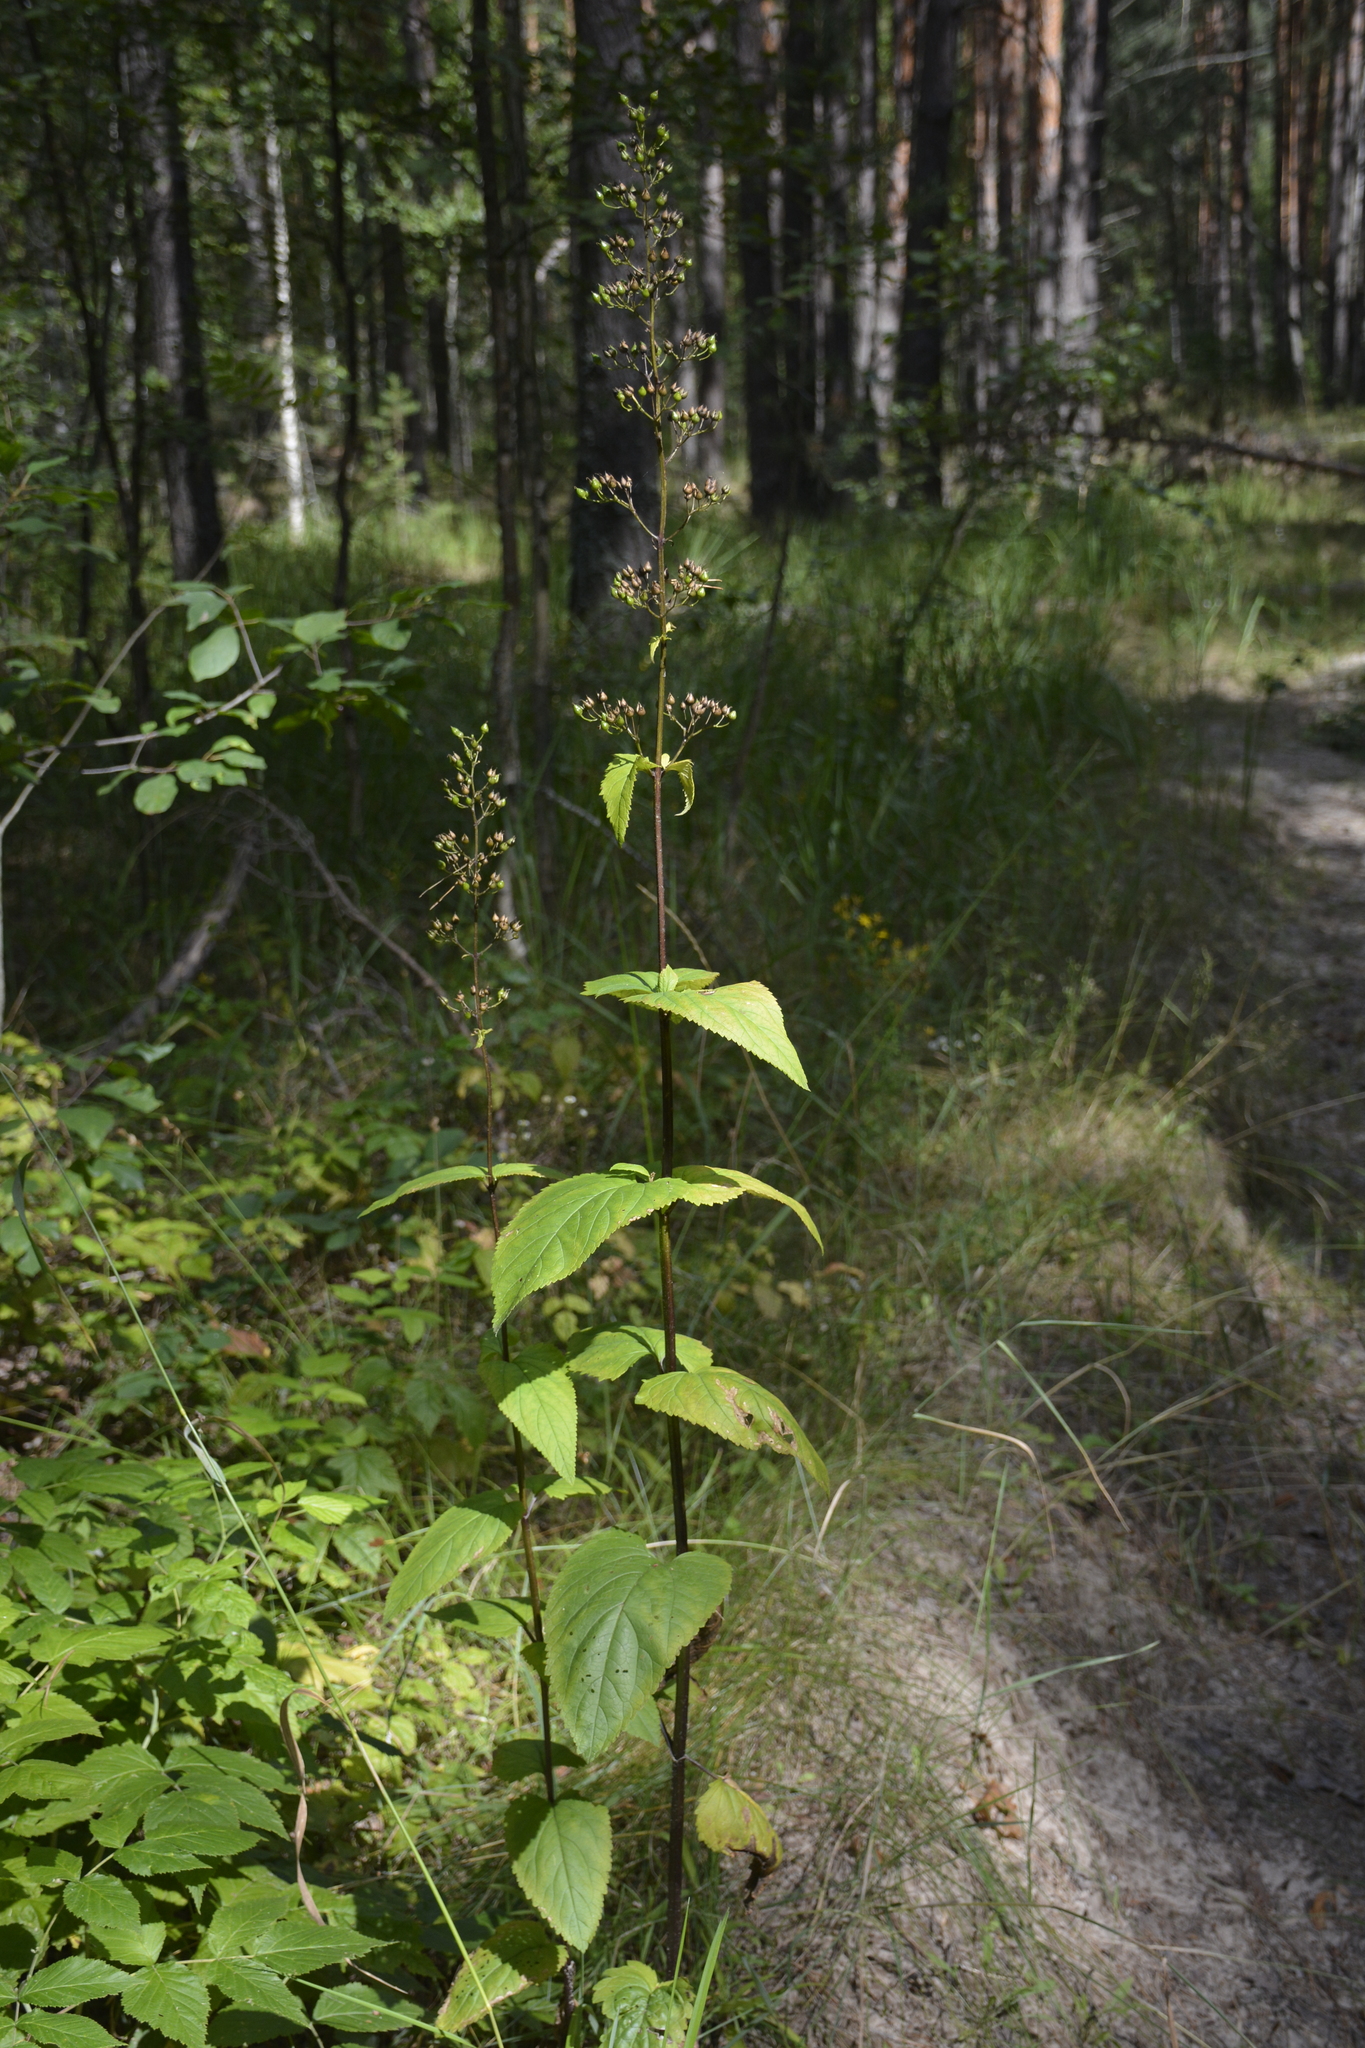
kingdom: Plantae
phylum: Tracheophyta
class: Magnoliopsida
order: Lamiales
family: Scrophulariaceae
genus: Scrophularia
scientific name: Scrophularia nodosa
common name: Common figwort
